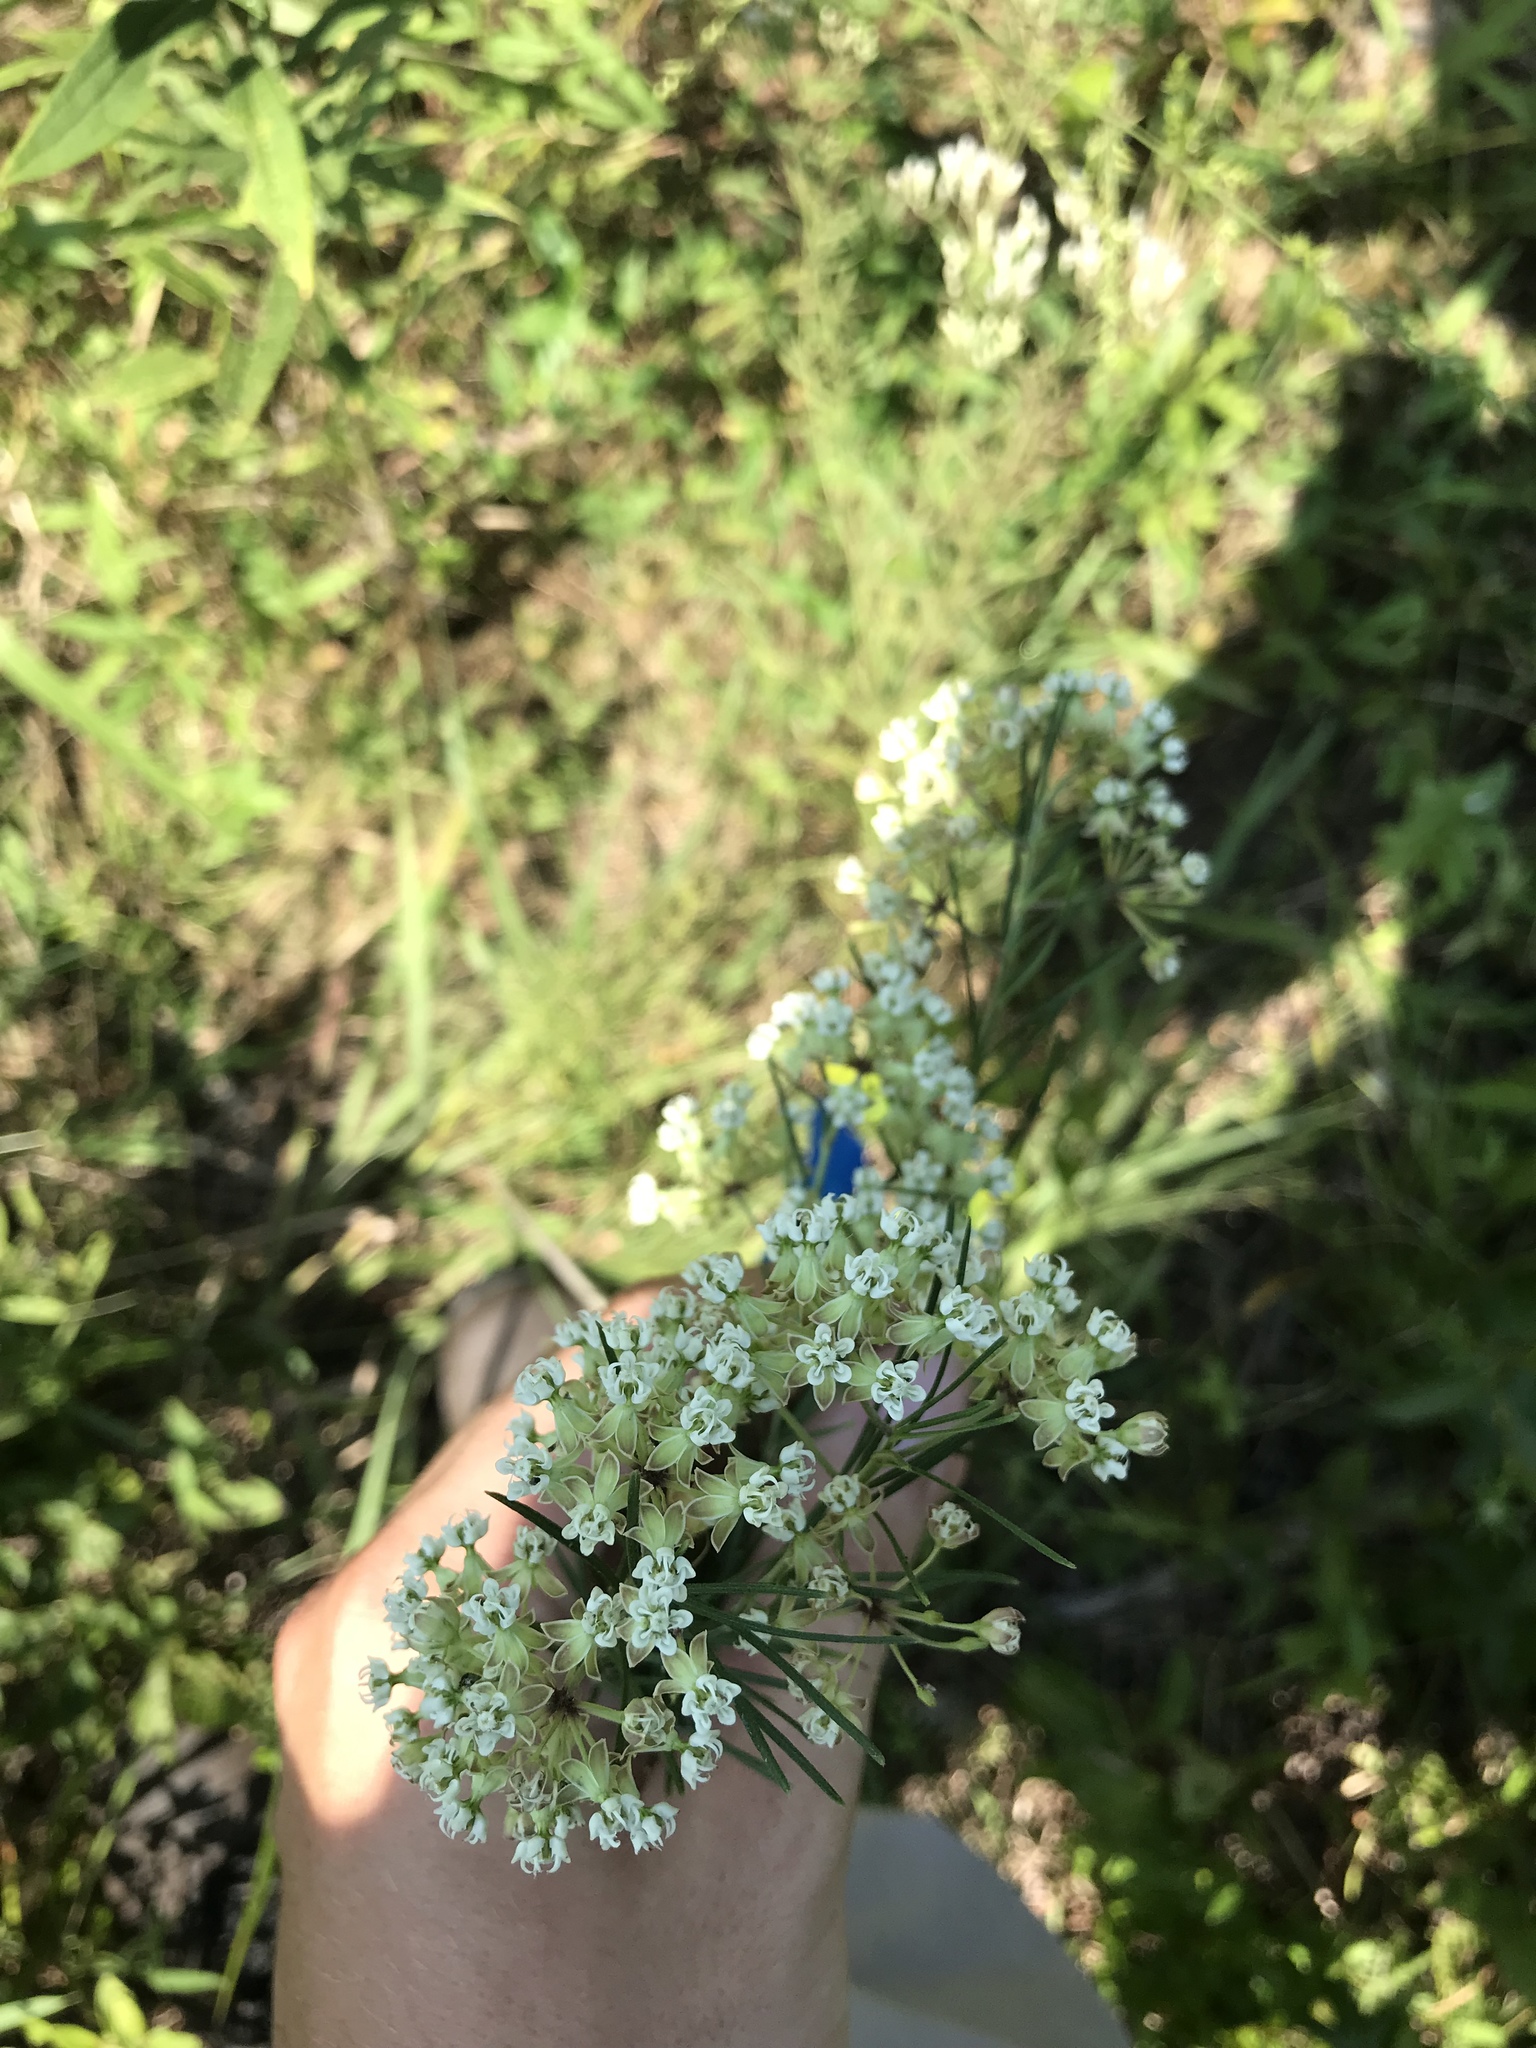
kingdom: Plantae
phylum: Tracheophyta
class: Magnoliopsida
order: Gentianales
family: Apocynaceae
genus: Asclepias
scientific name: Asclepias verticillata
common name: Eastern whorled milkweed
